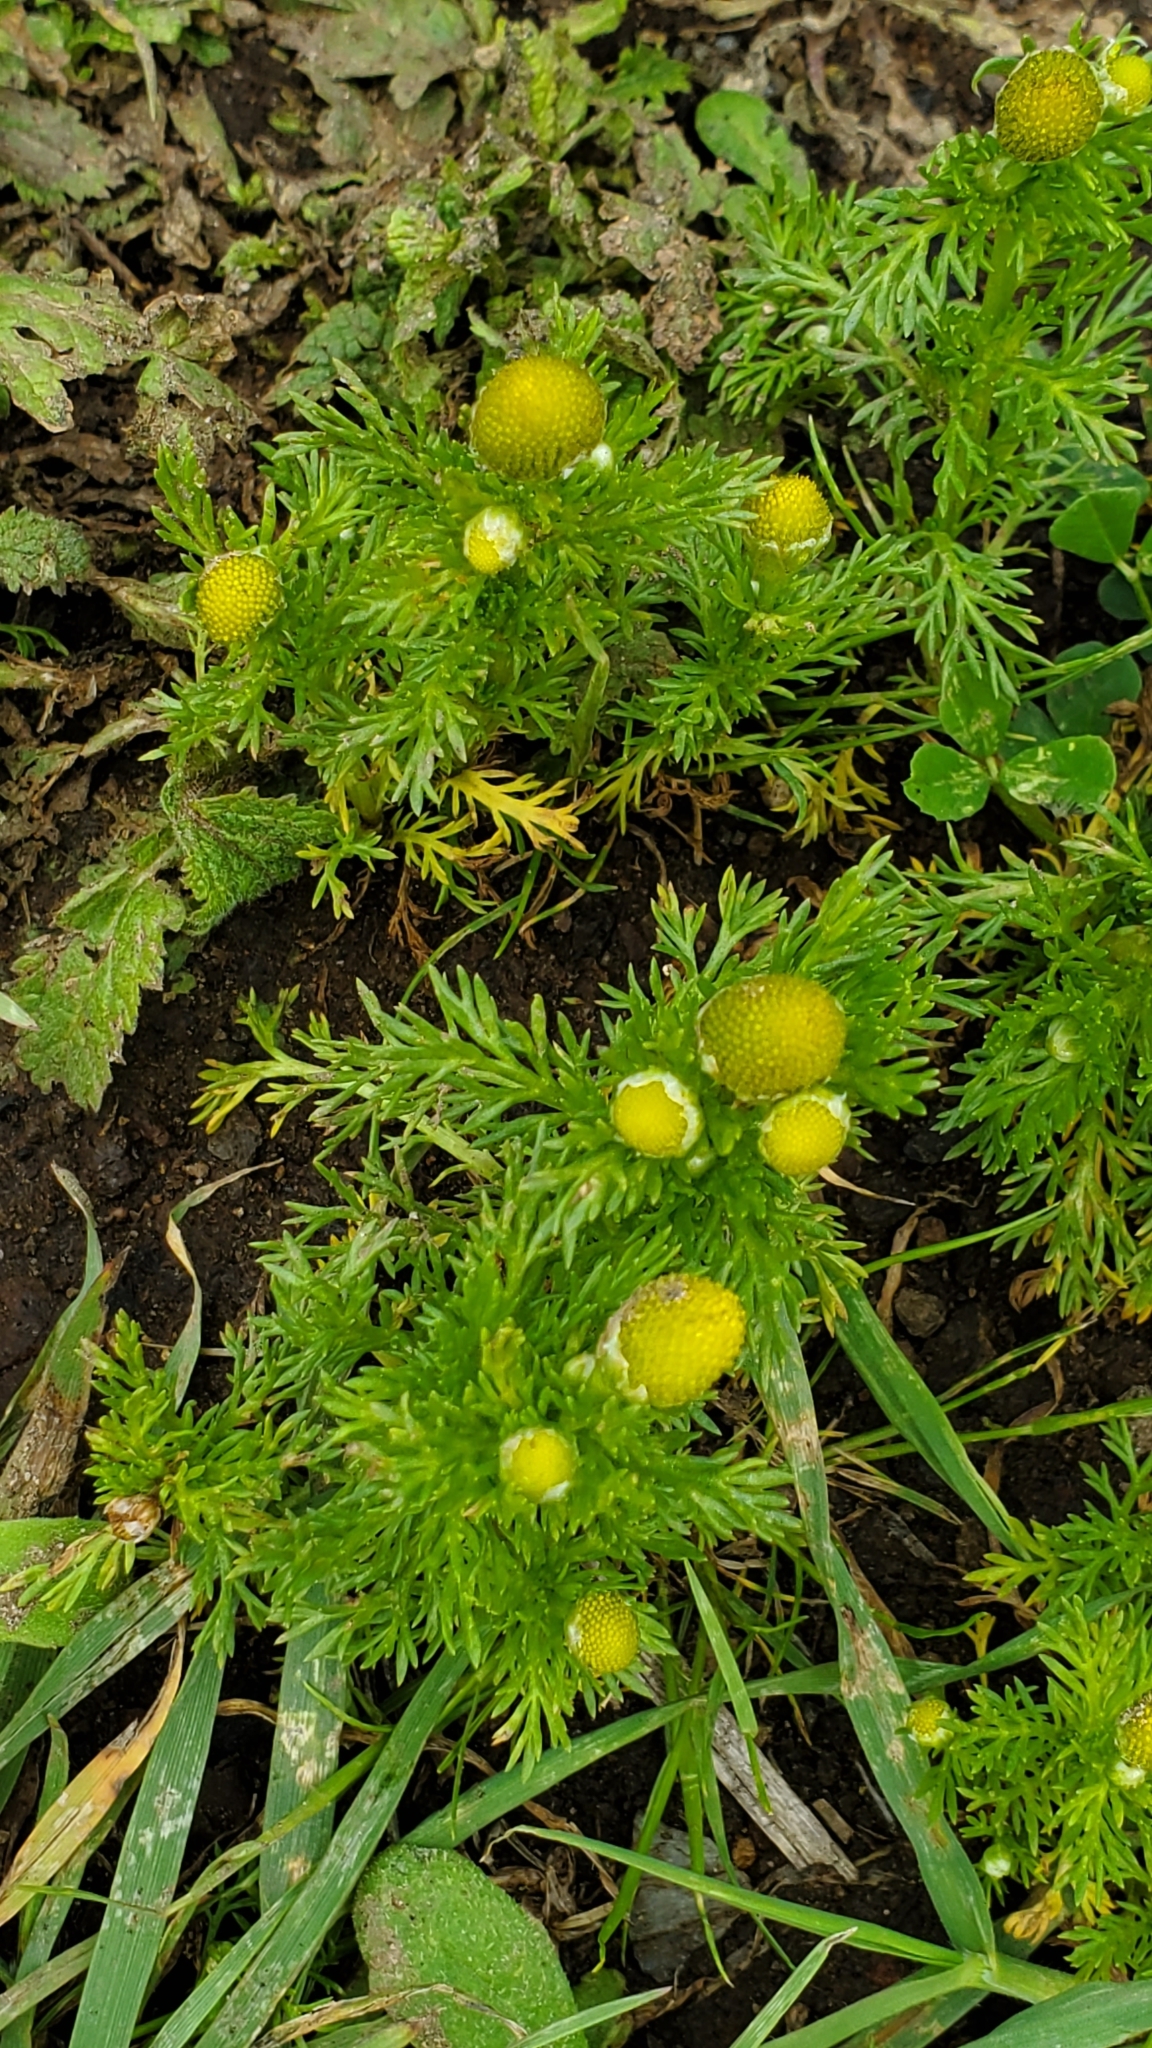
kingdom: Plantae
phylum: Tracheophyta
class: Magnoliopsida
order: Asterales
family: Asteraceae
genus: Matricaria
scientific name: Matricaria discoidea
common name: Disc mayweed
